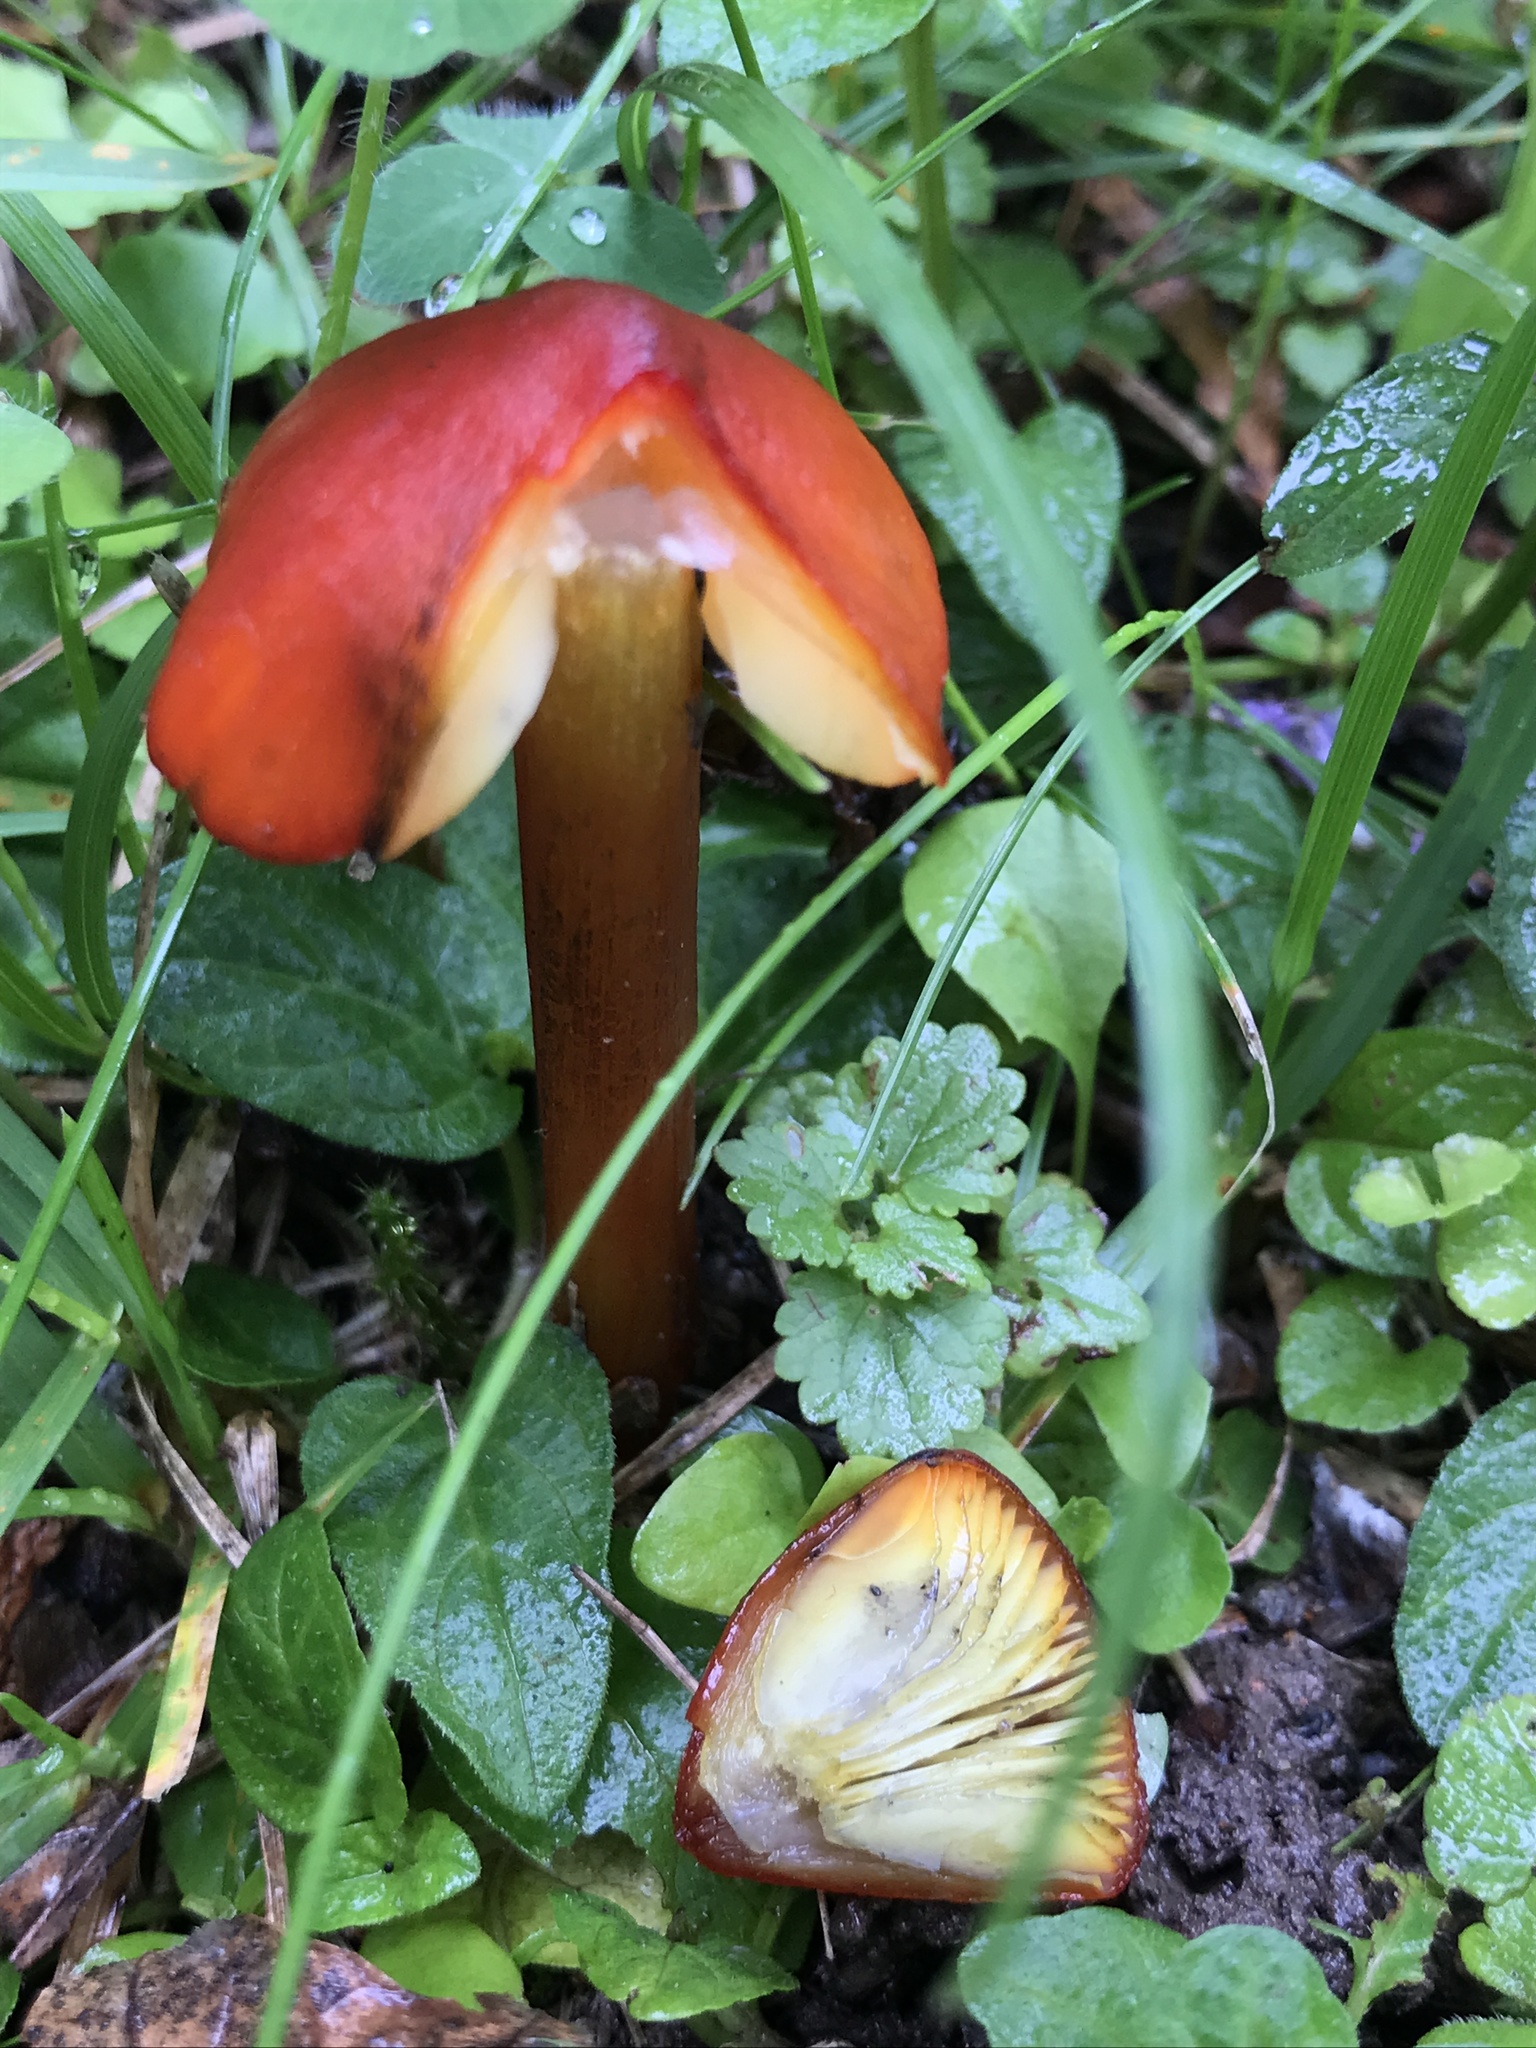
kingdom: Fungi
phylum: Basidiomycota
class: Agaricomycetes
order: Agaricales
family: Hygrophoraceae
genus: Hygrocybe
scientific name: Hygrocybe conica
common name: Blackening wax-cap
